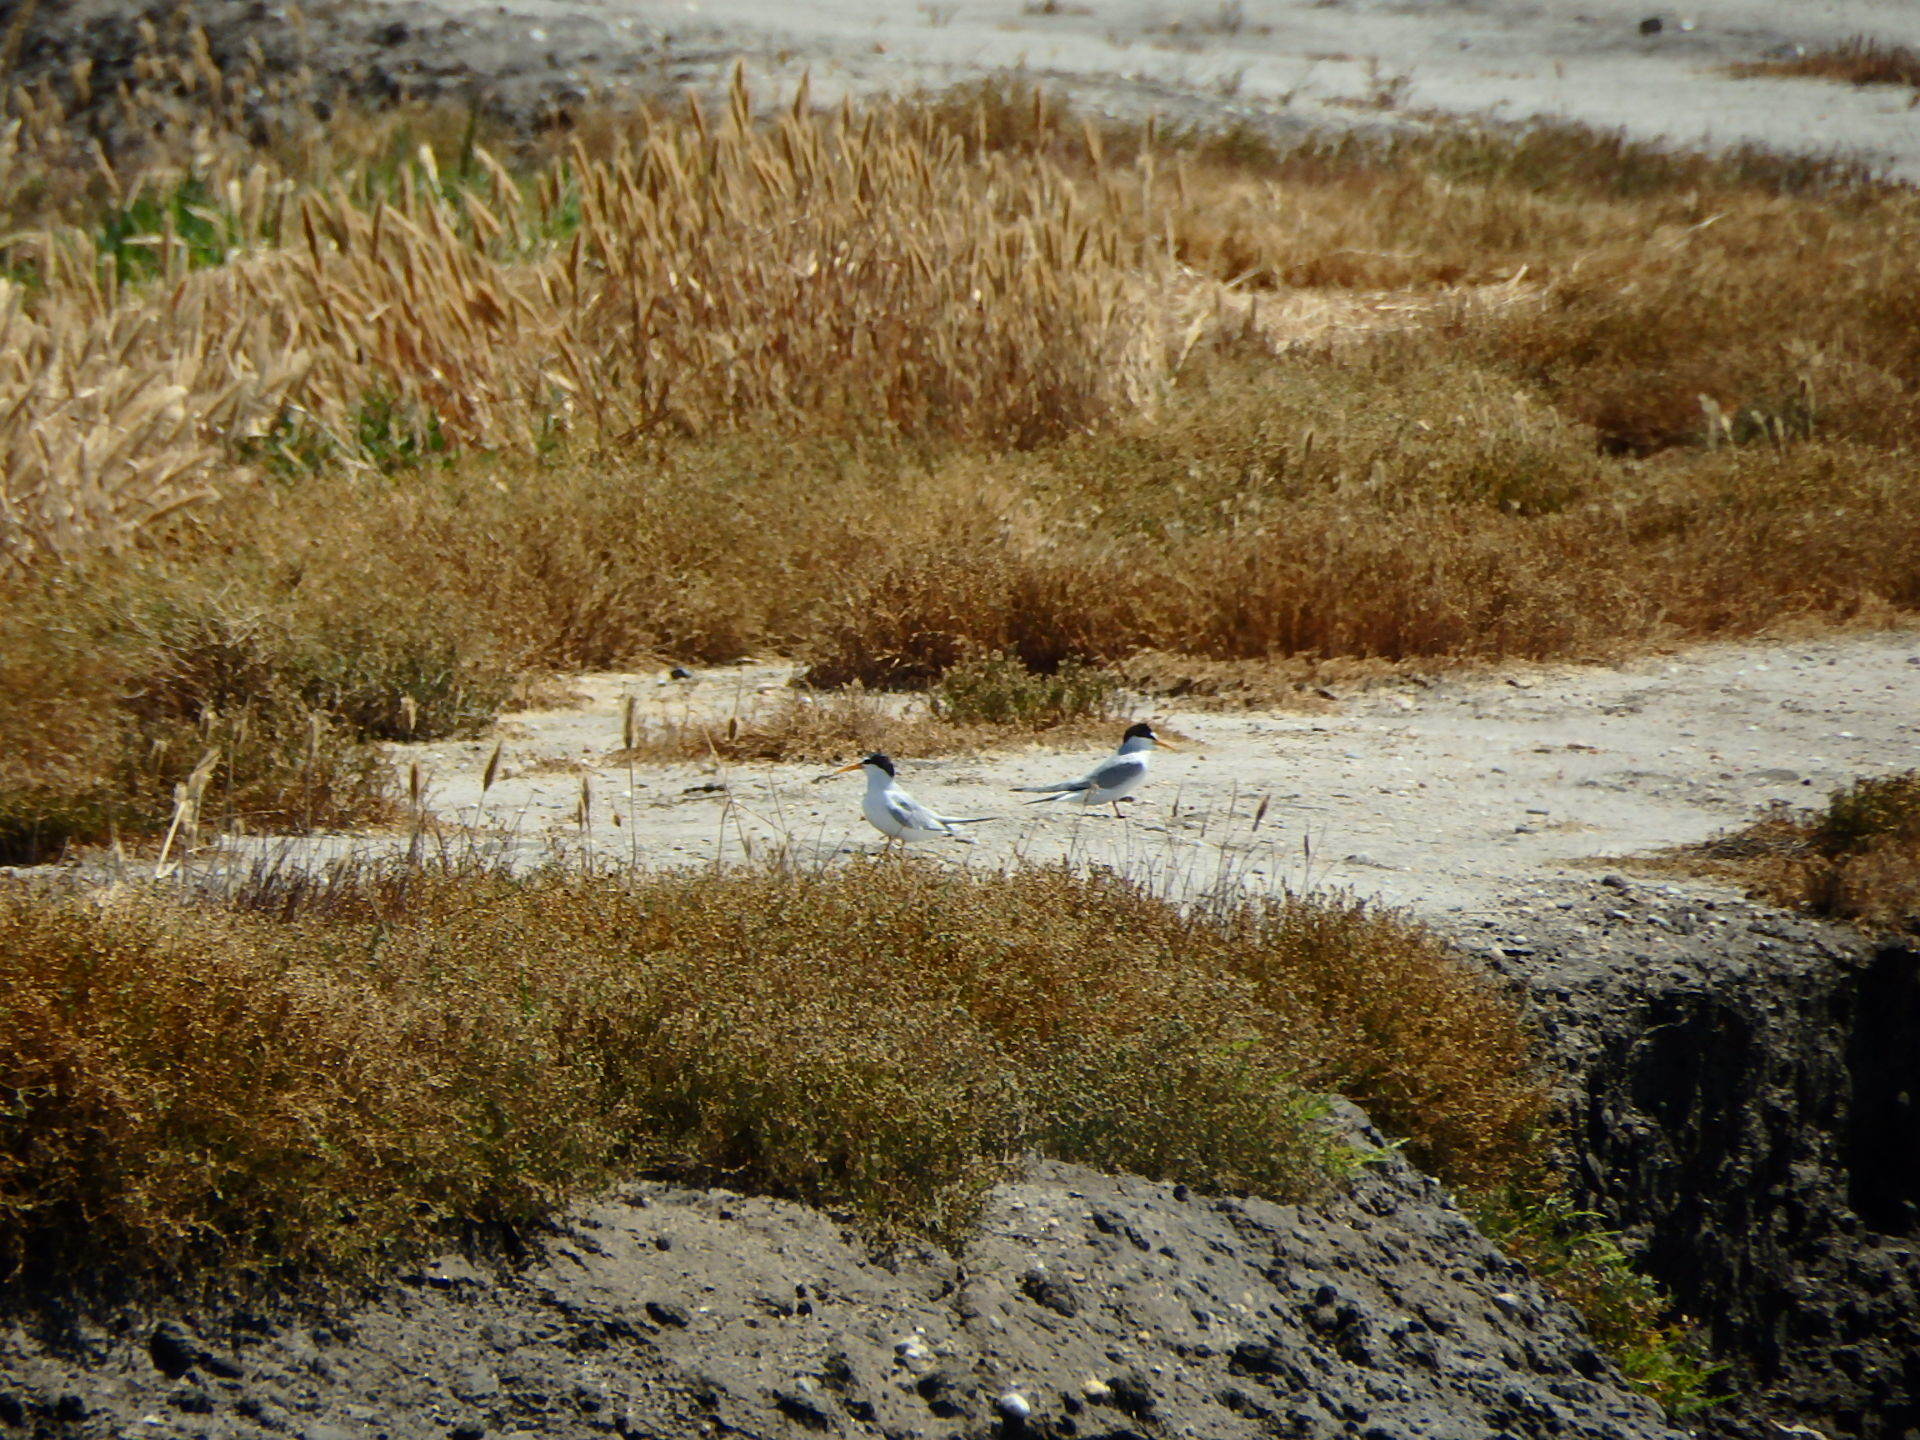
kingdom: Animalia
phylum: Chordata
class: Aves
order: Charadriiformes
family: Laridae
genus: Sternula
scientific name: Sternula albifrons
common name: Little tern
